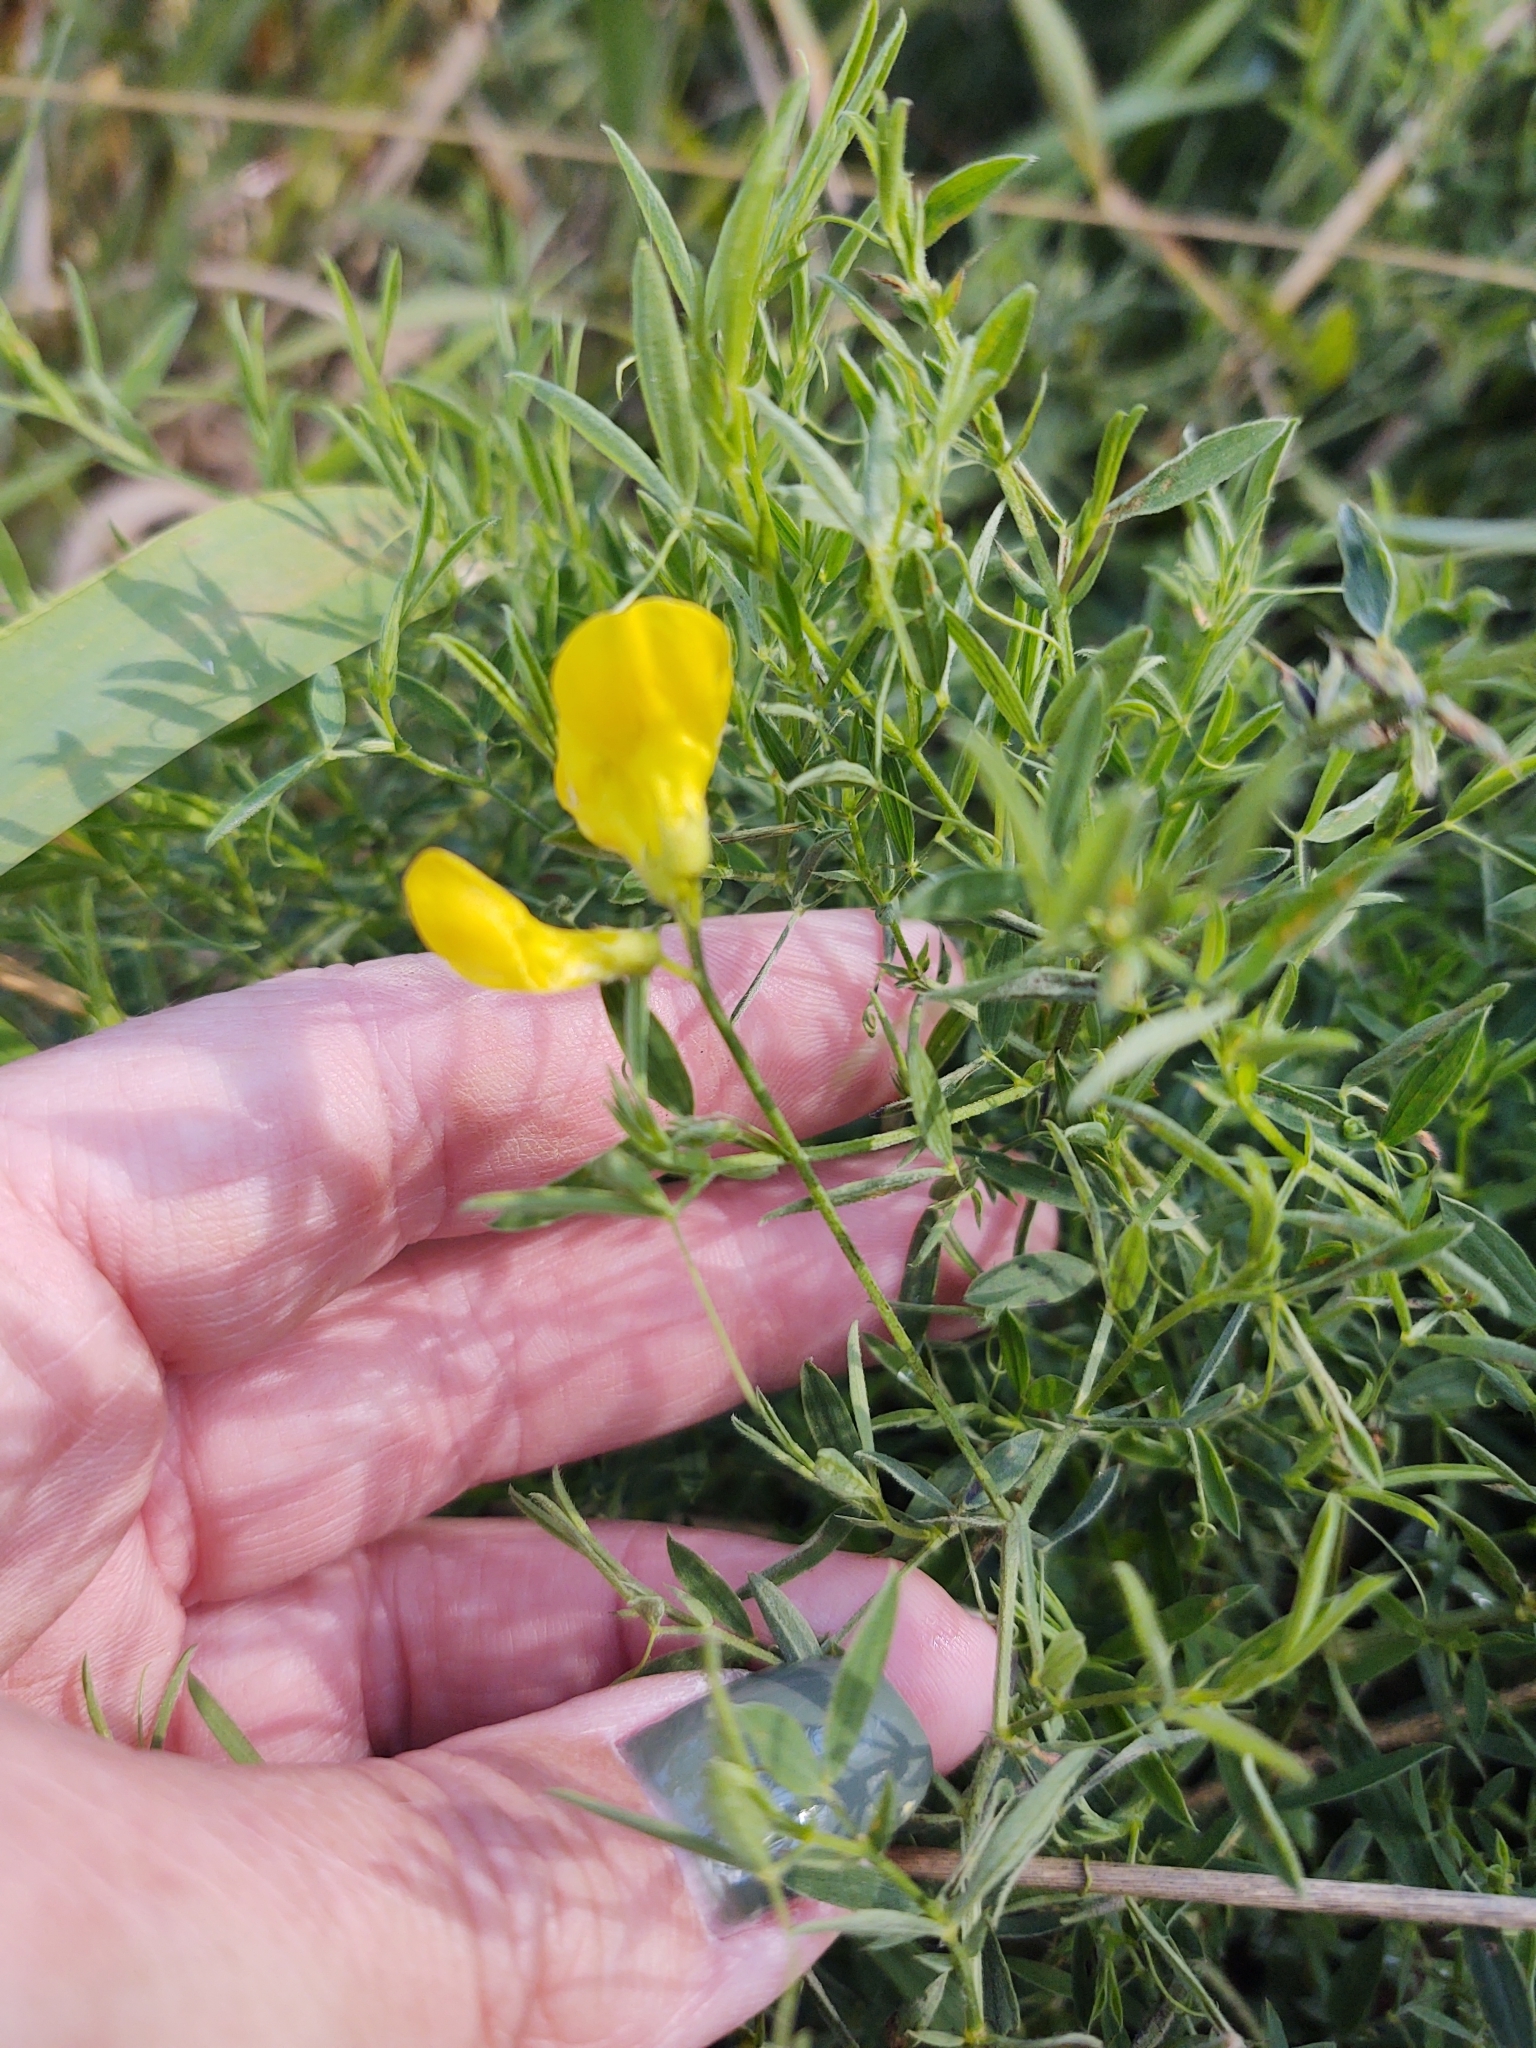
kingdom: Plantae
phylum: Tracheophyta
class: Magnoliopsida
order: Fabales
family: Fabaceae
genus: Lathyrus
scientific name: Lathyrus pratensis
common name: Meadow vetchling
